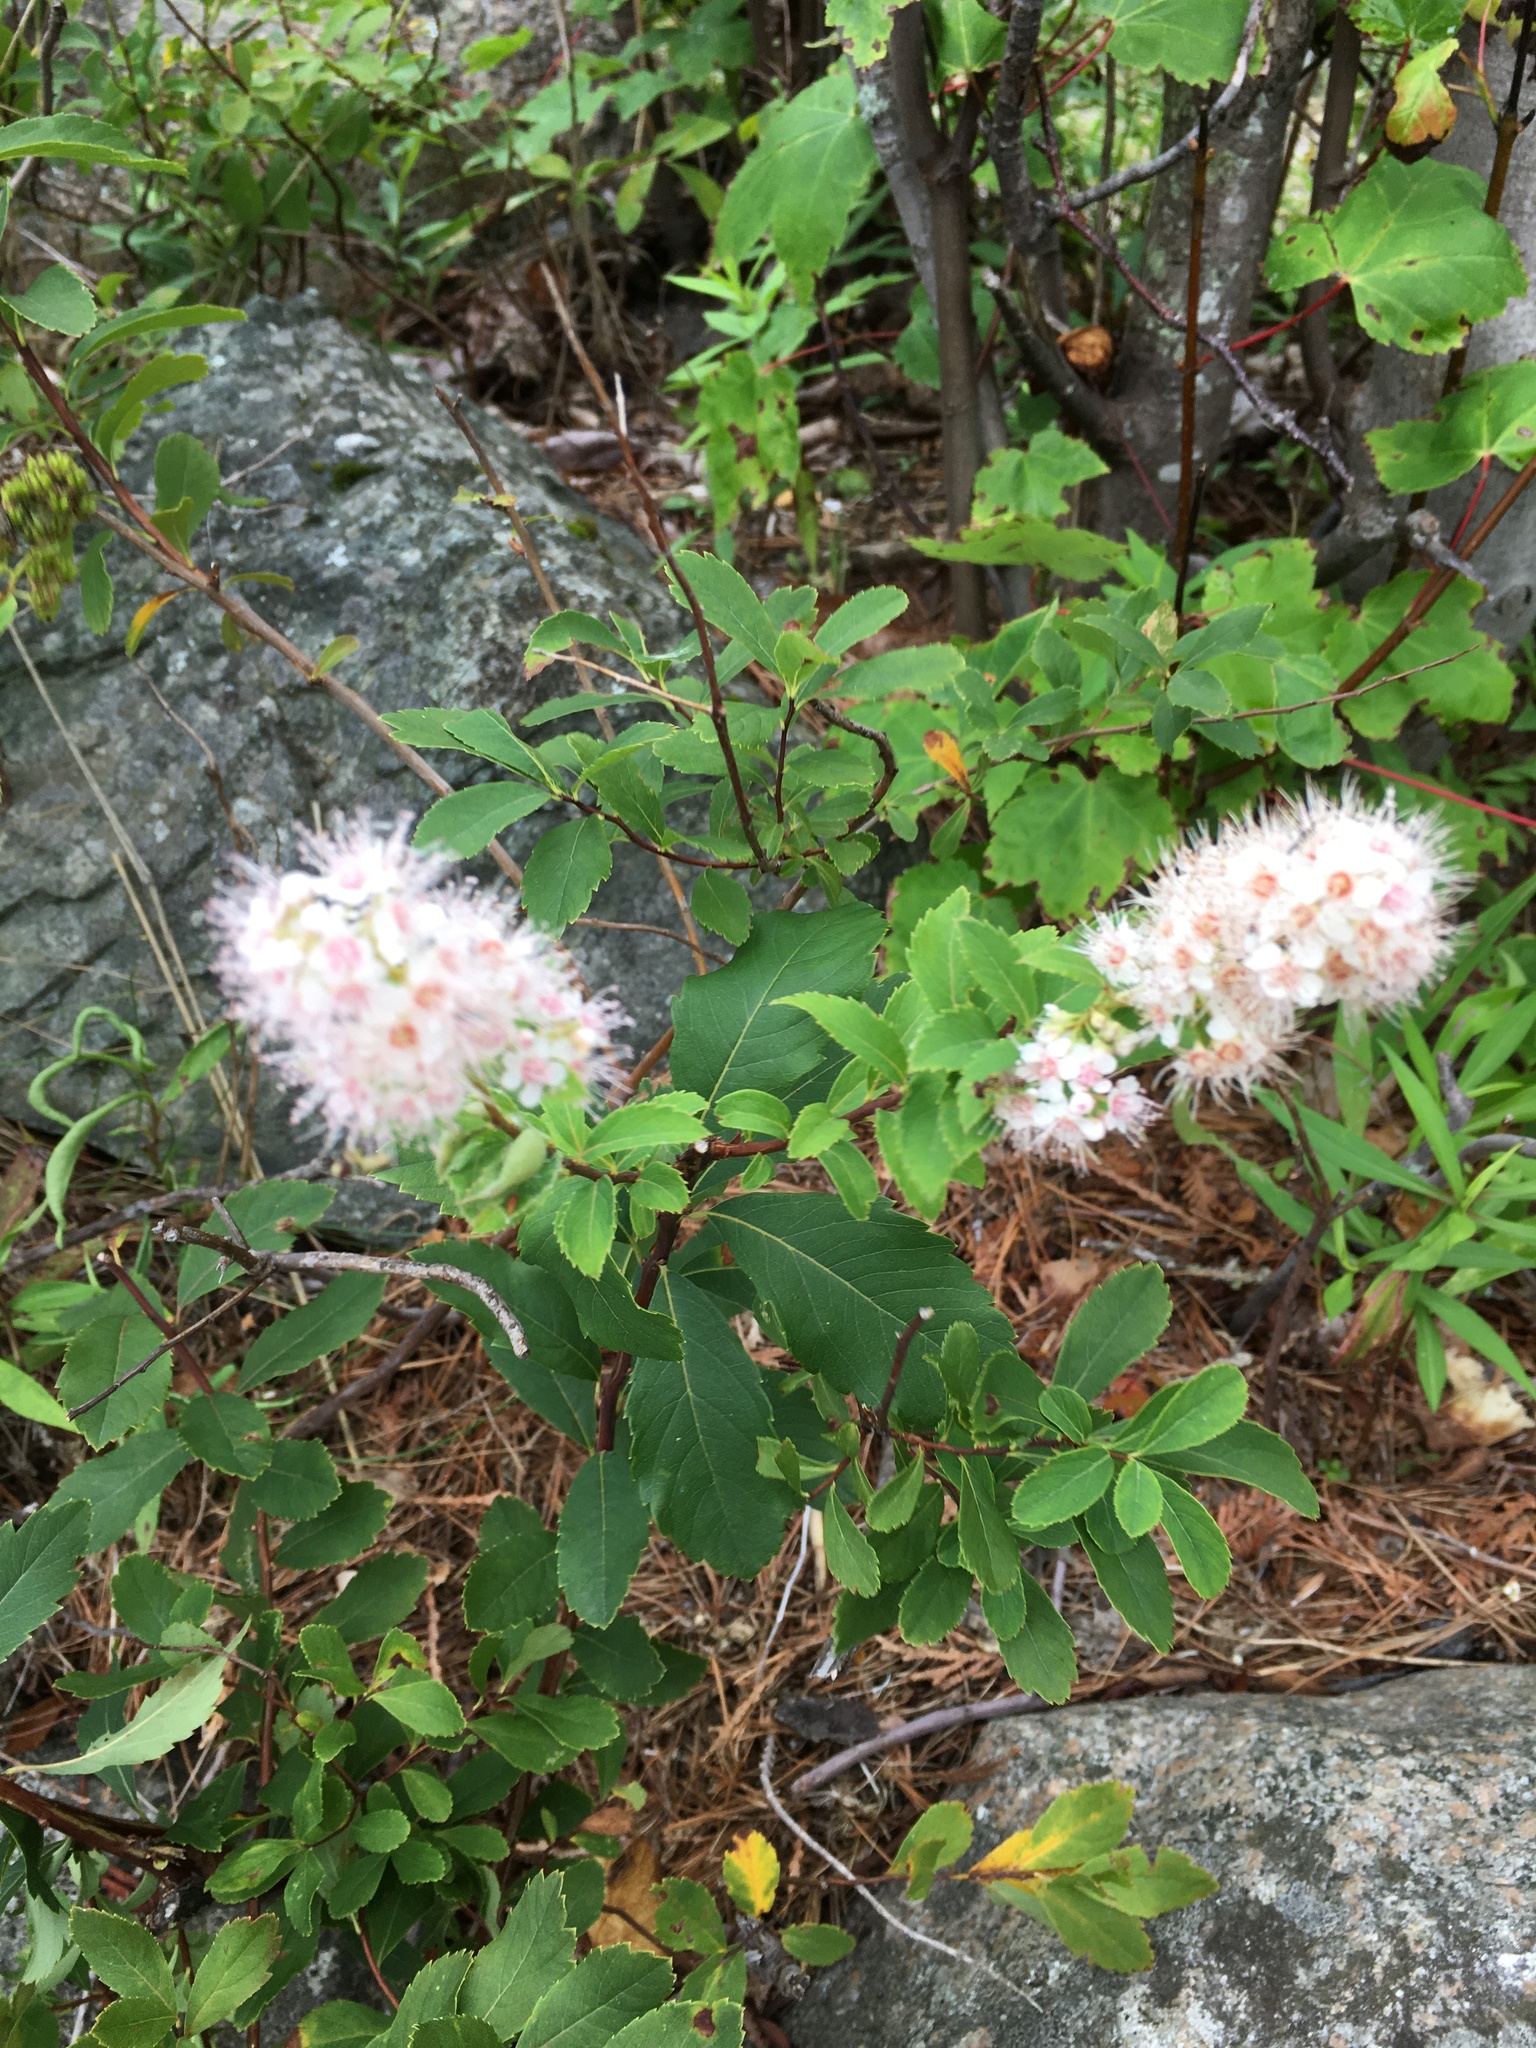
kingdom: Plantae
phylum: Tracheophyta
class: Magnoliopsida
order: Rosales
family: Rosaceae
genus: Spiraea
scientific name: Spiraea alba
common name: Pale bridewort
